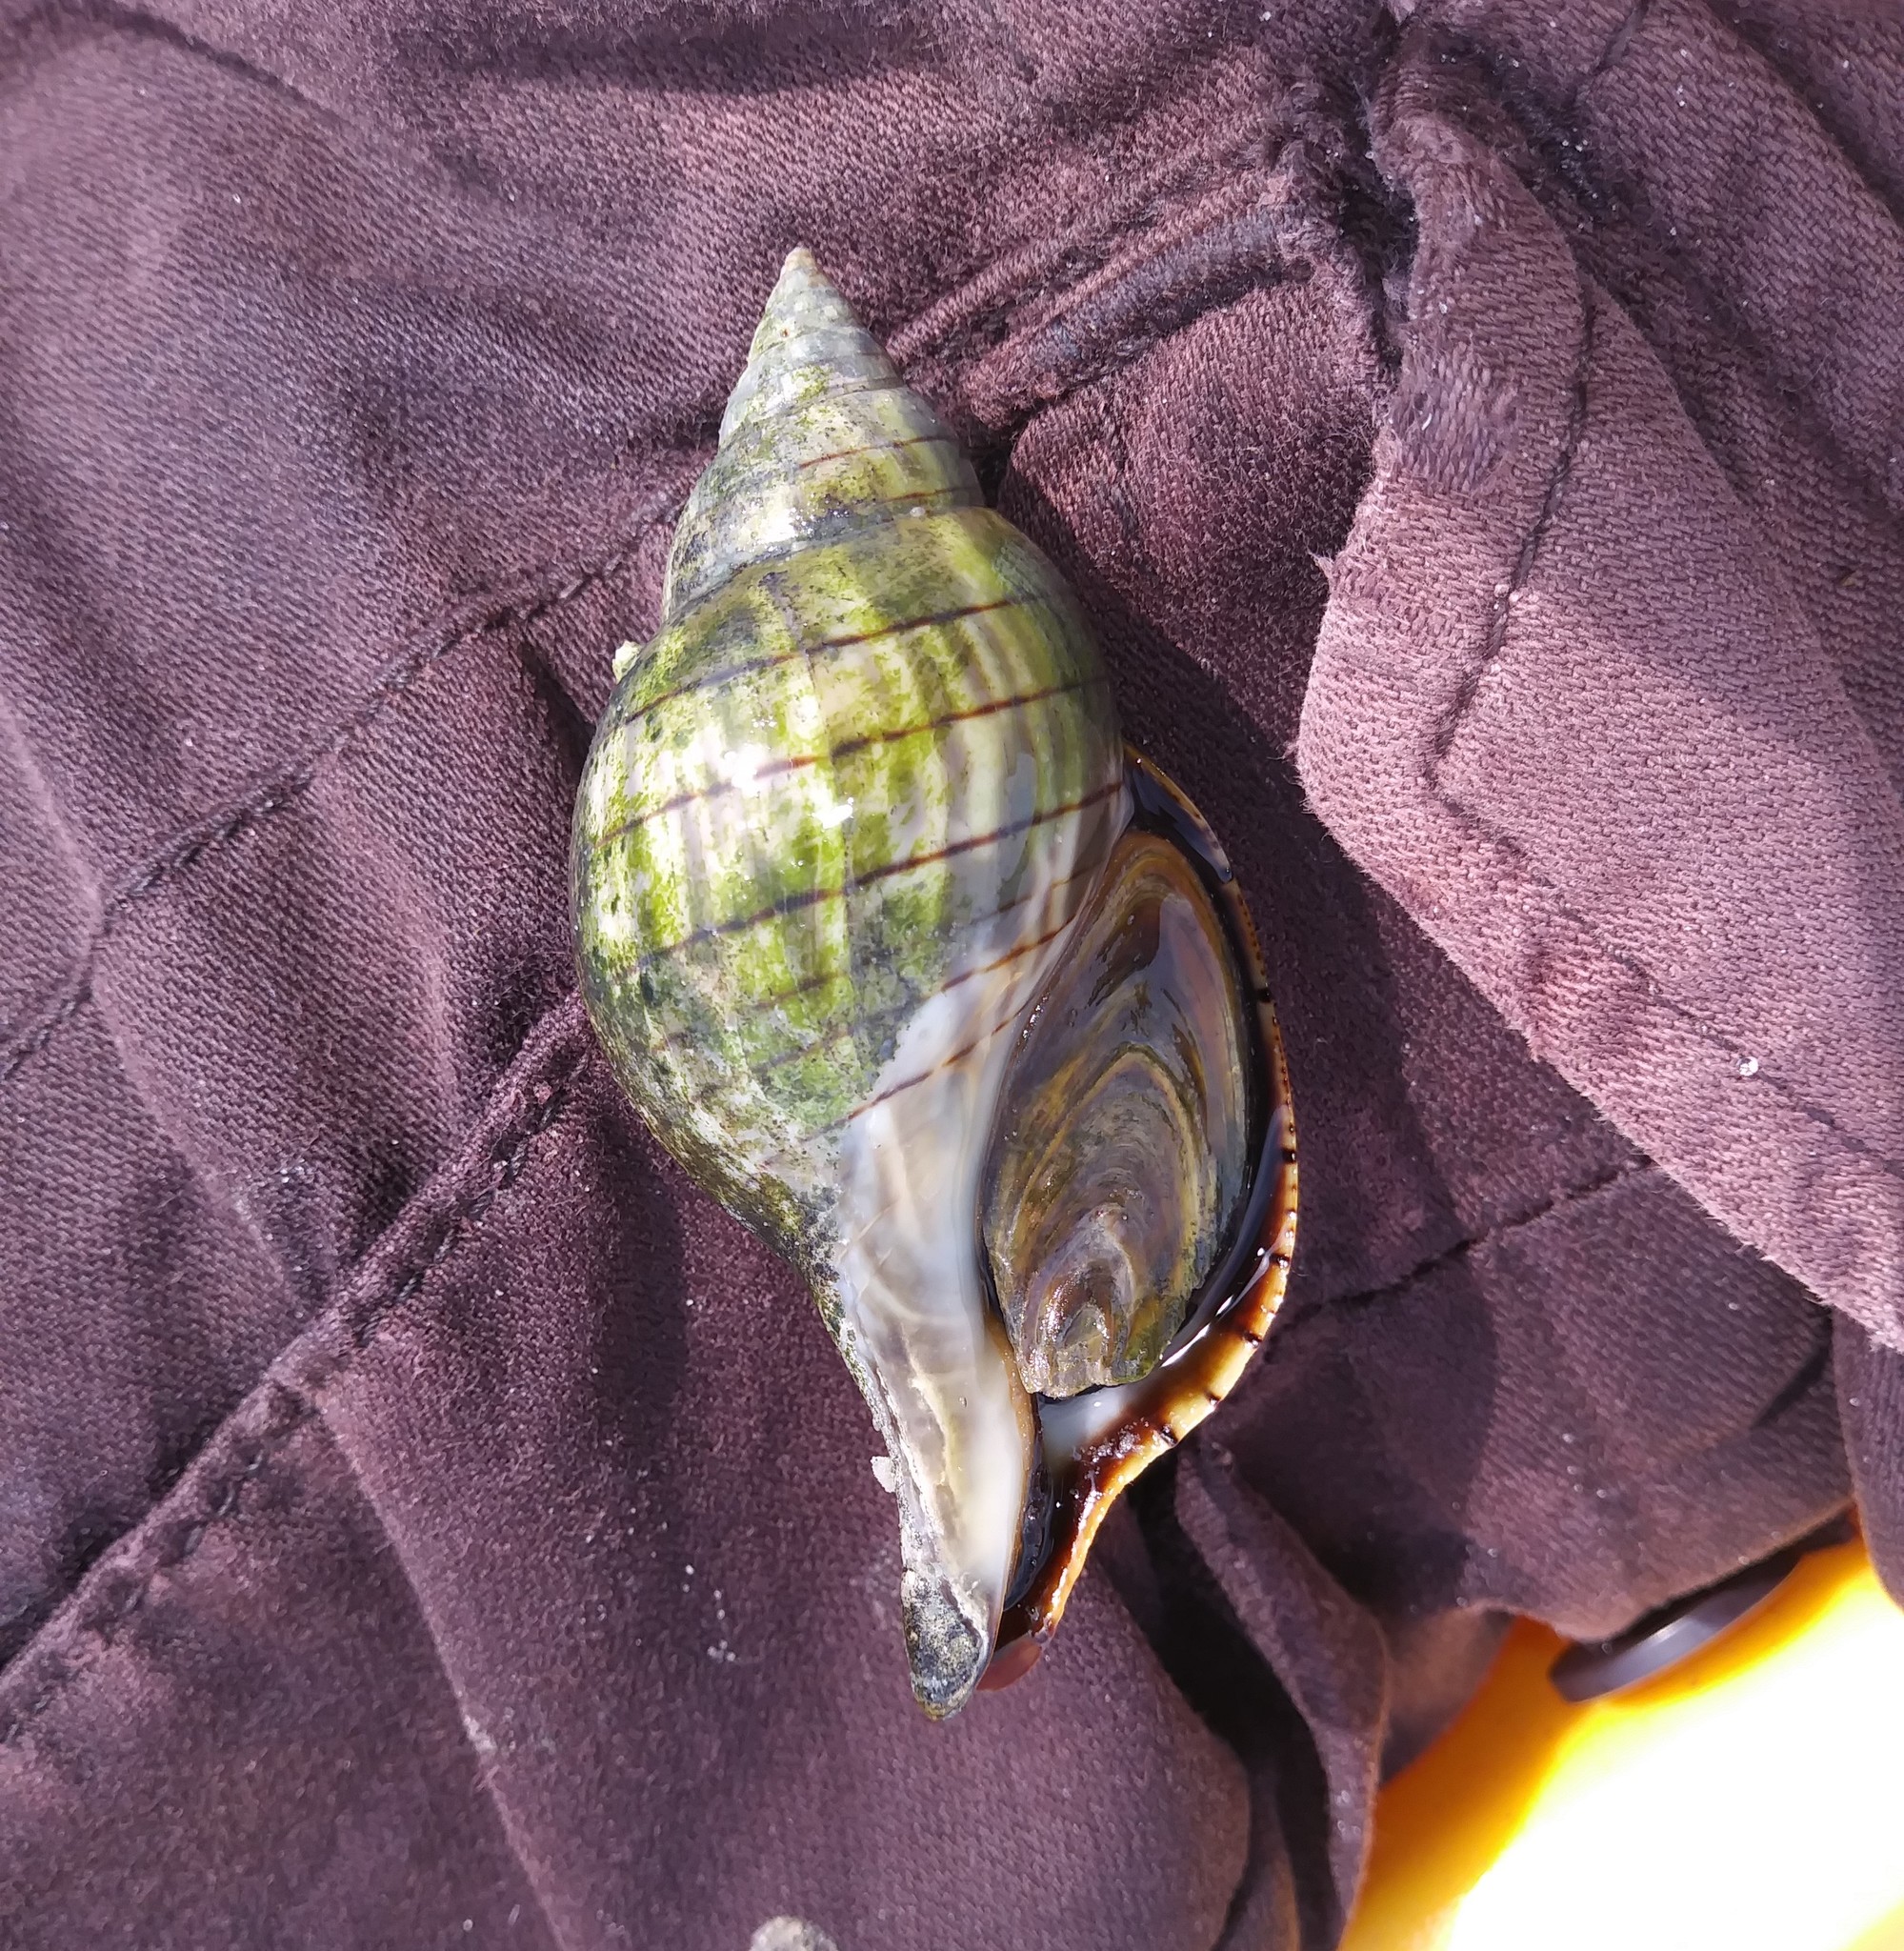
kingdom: Animalia
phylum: Mollusca
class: Gastropoda
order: Neogastropoda
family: Fasciolariidae
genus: Cinctura
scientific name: Cinctura hunteria
